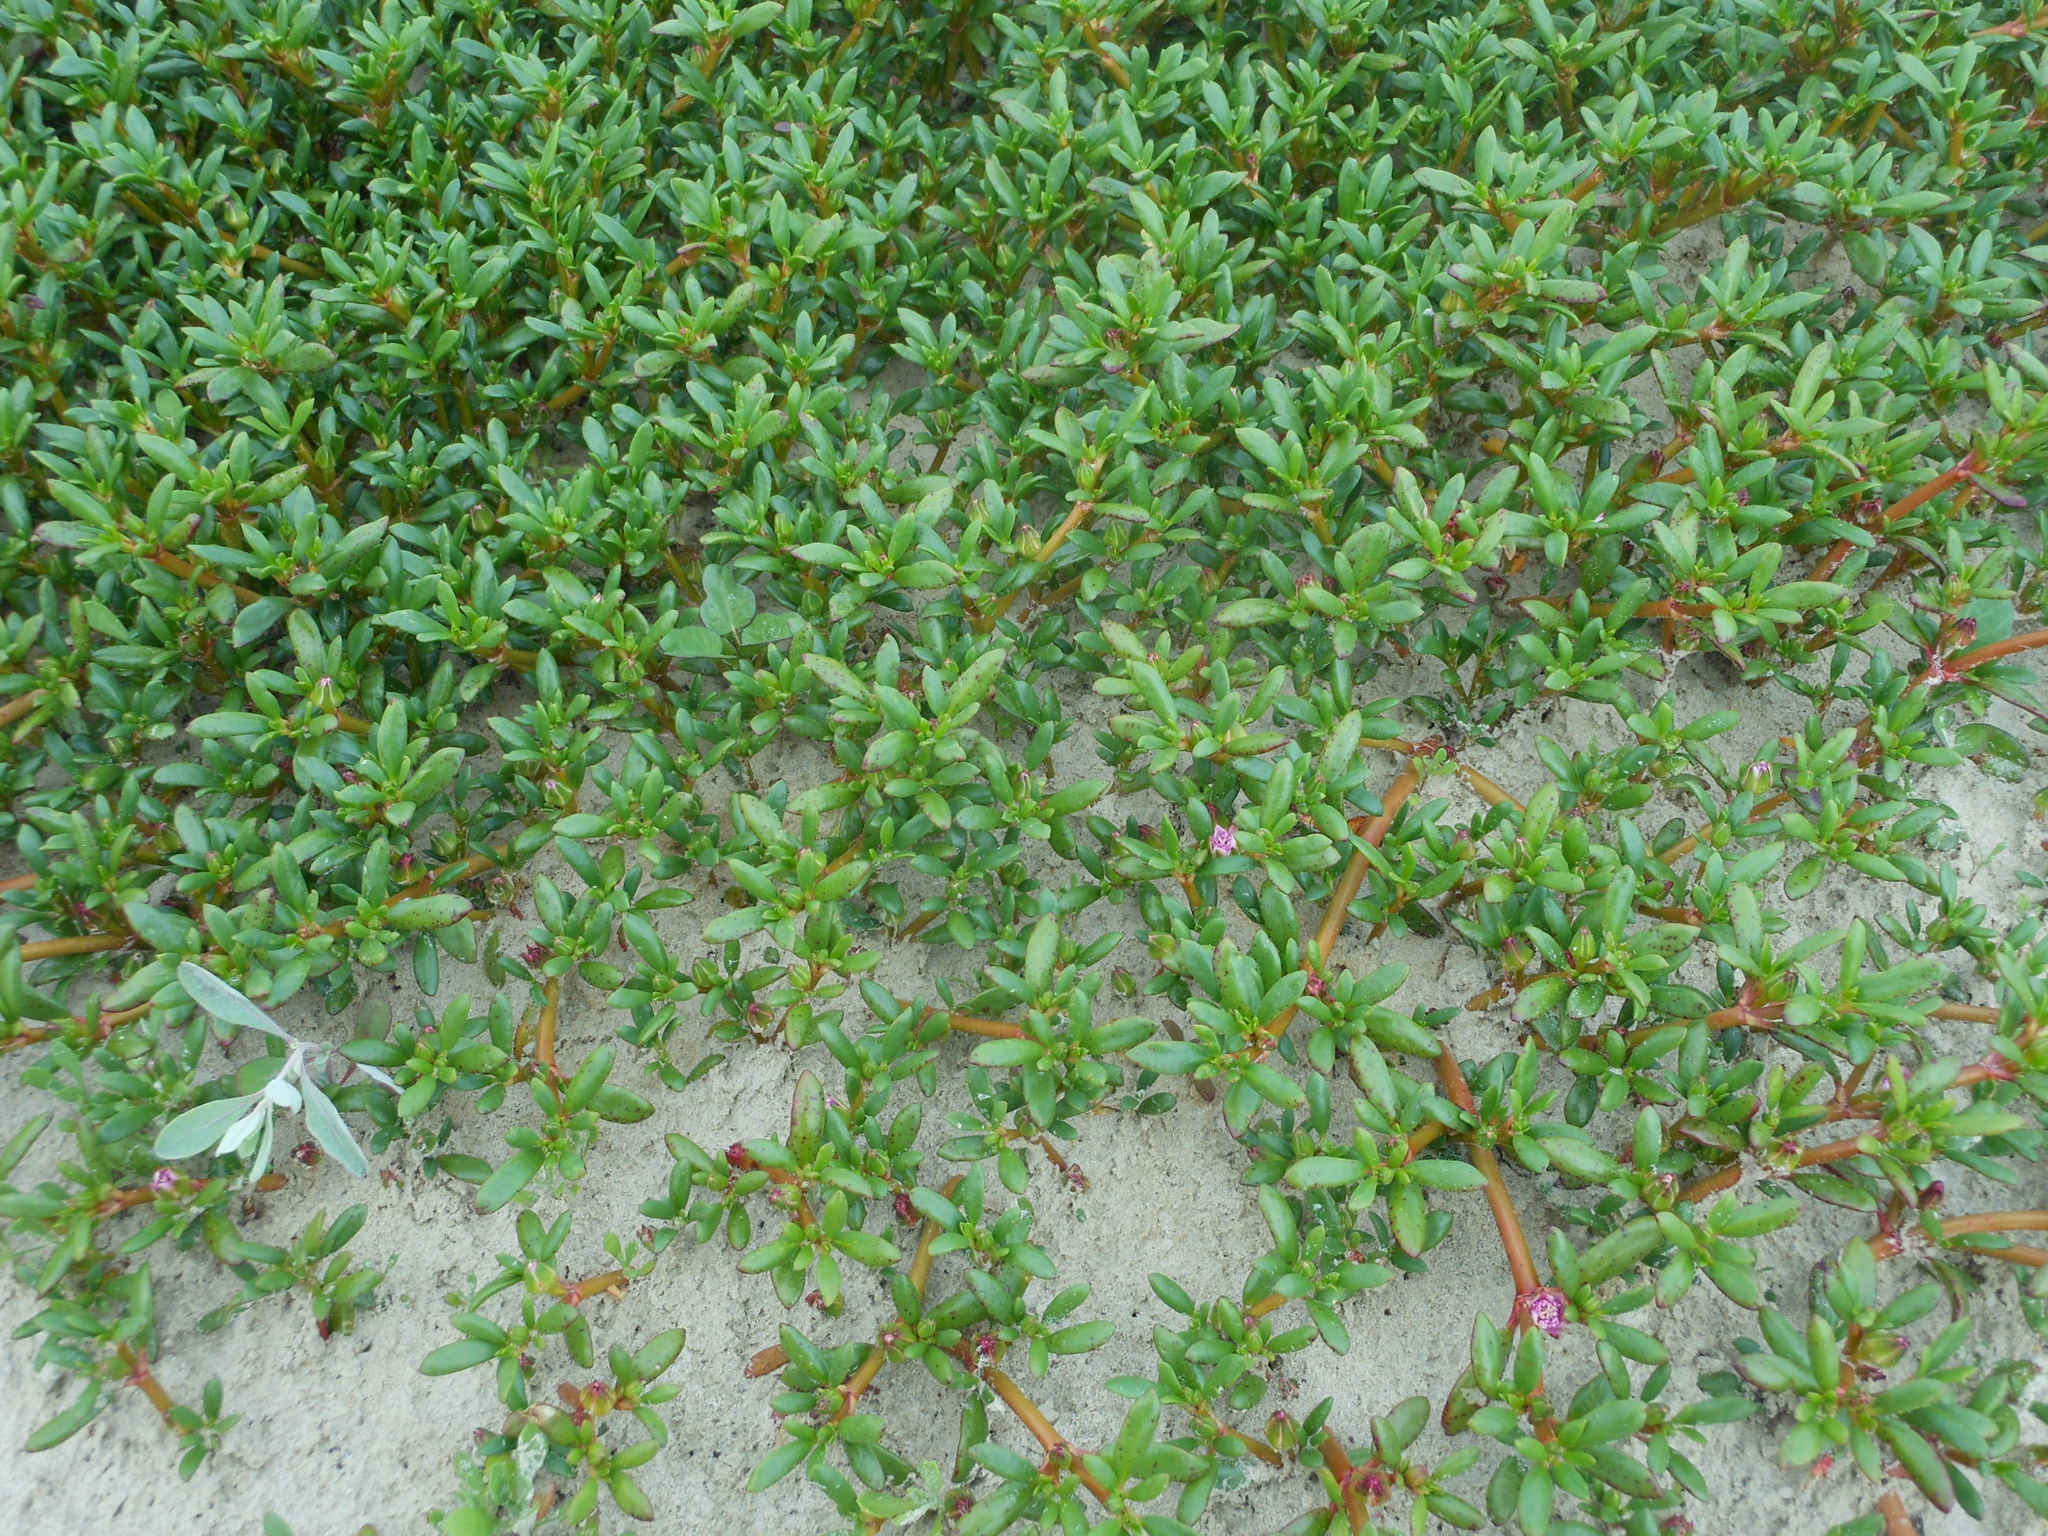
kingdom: Plantae
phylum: Tracheophyta
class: Magnoliopsida
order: Caryophyllales
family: Aizoaceae
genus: Sesuvium
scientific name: Sesuvium portulacastrum
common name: Sea-purslane
